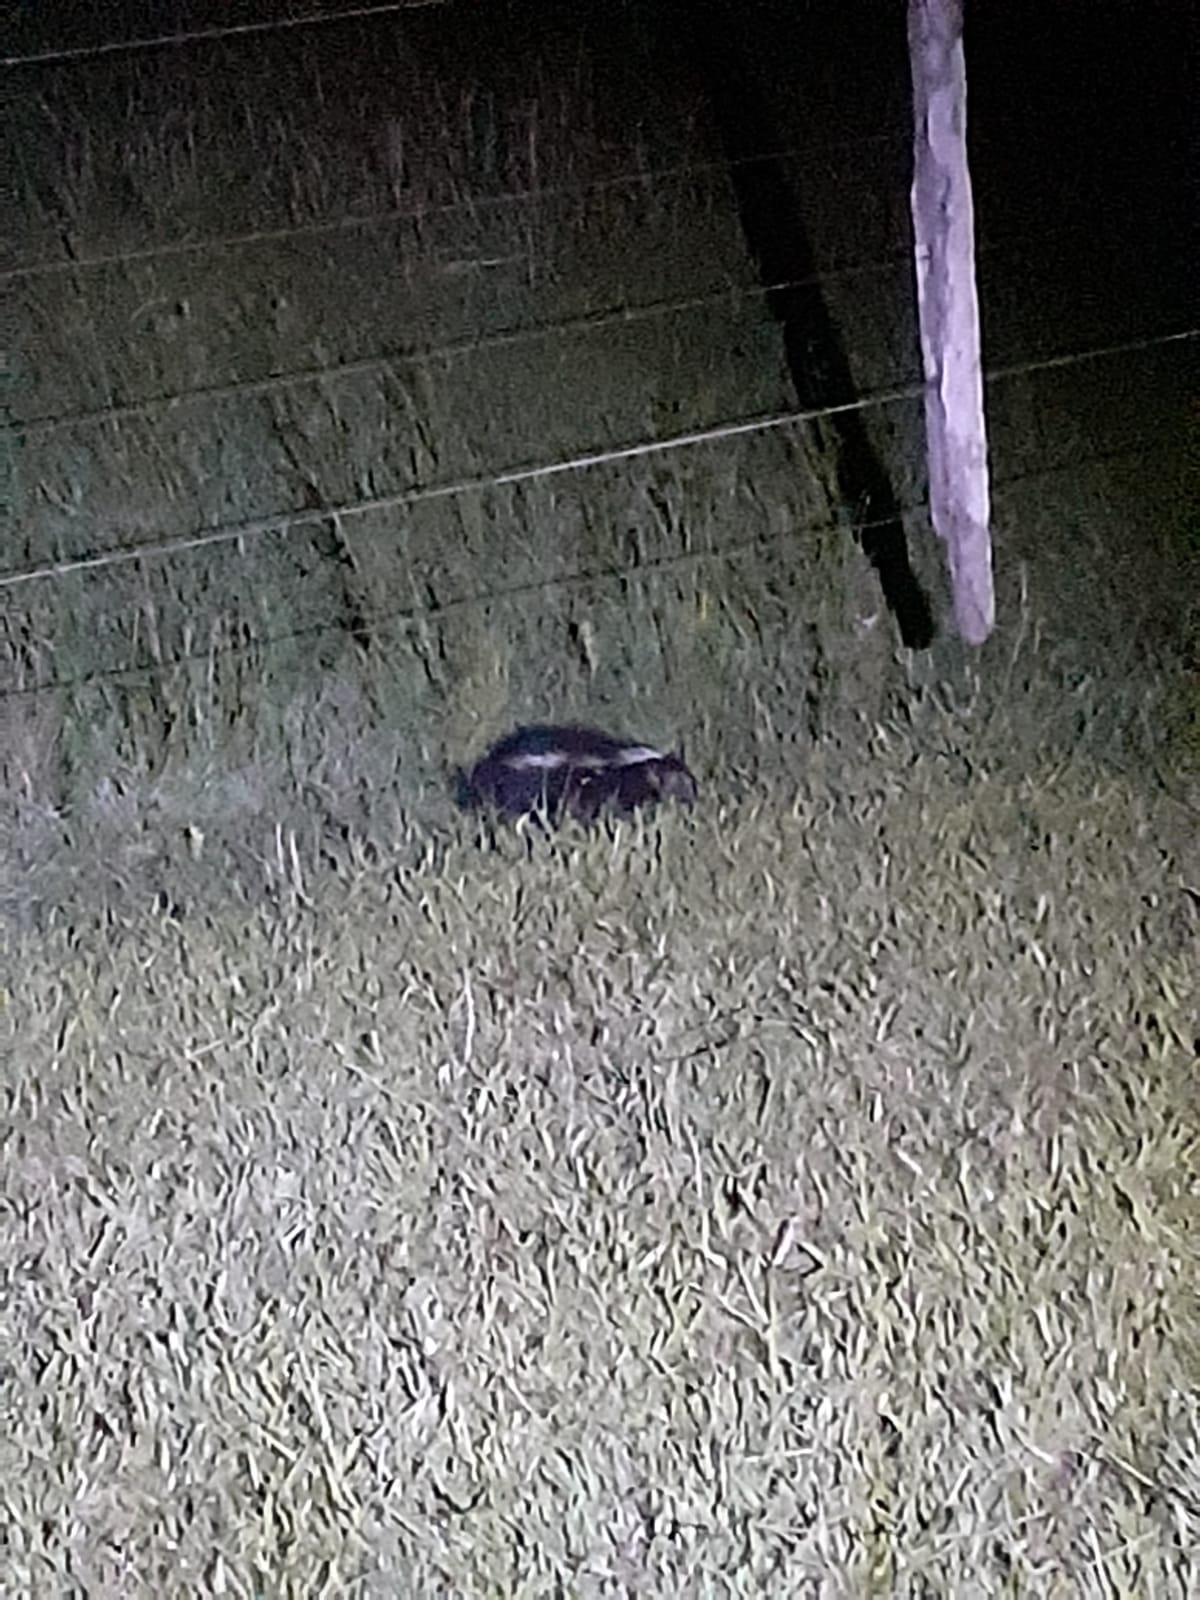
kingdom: Animalia
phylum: Chordata
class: Mammalia
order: Carnivora
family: Mephitidae
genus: Conepatus
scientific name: Conepatus chinga
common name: Molina's hog-nosed skunk
